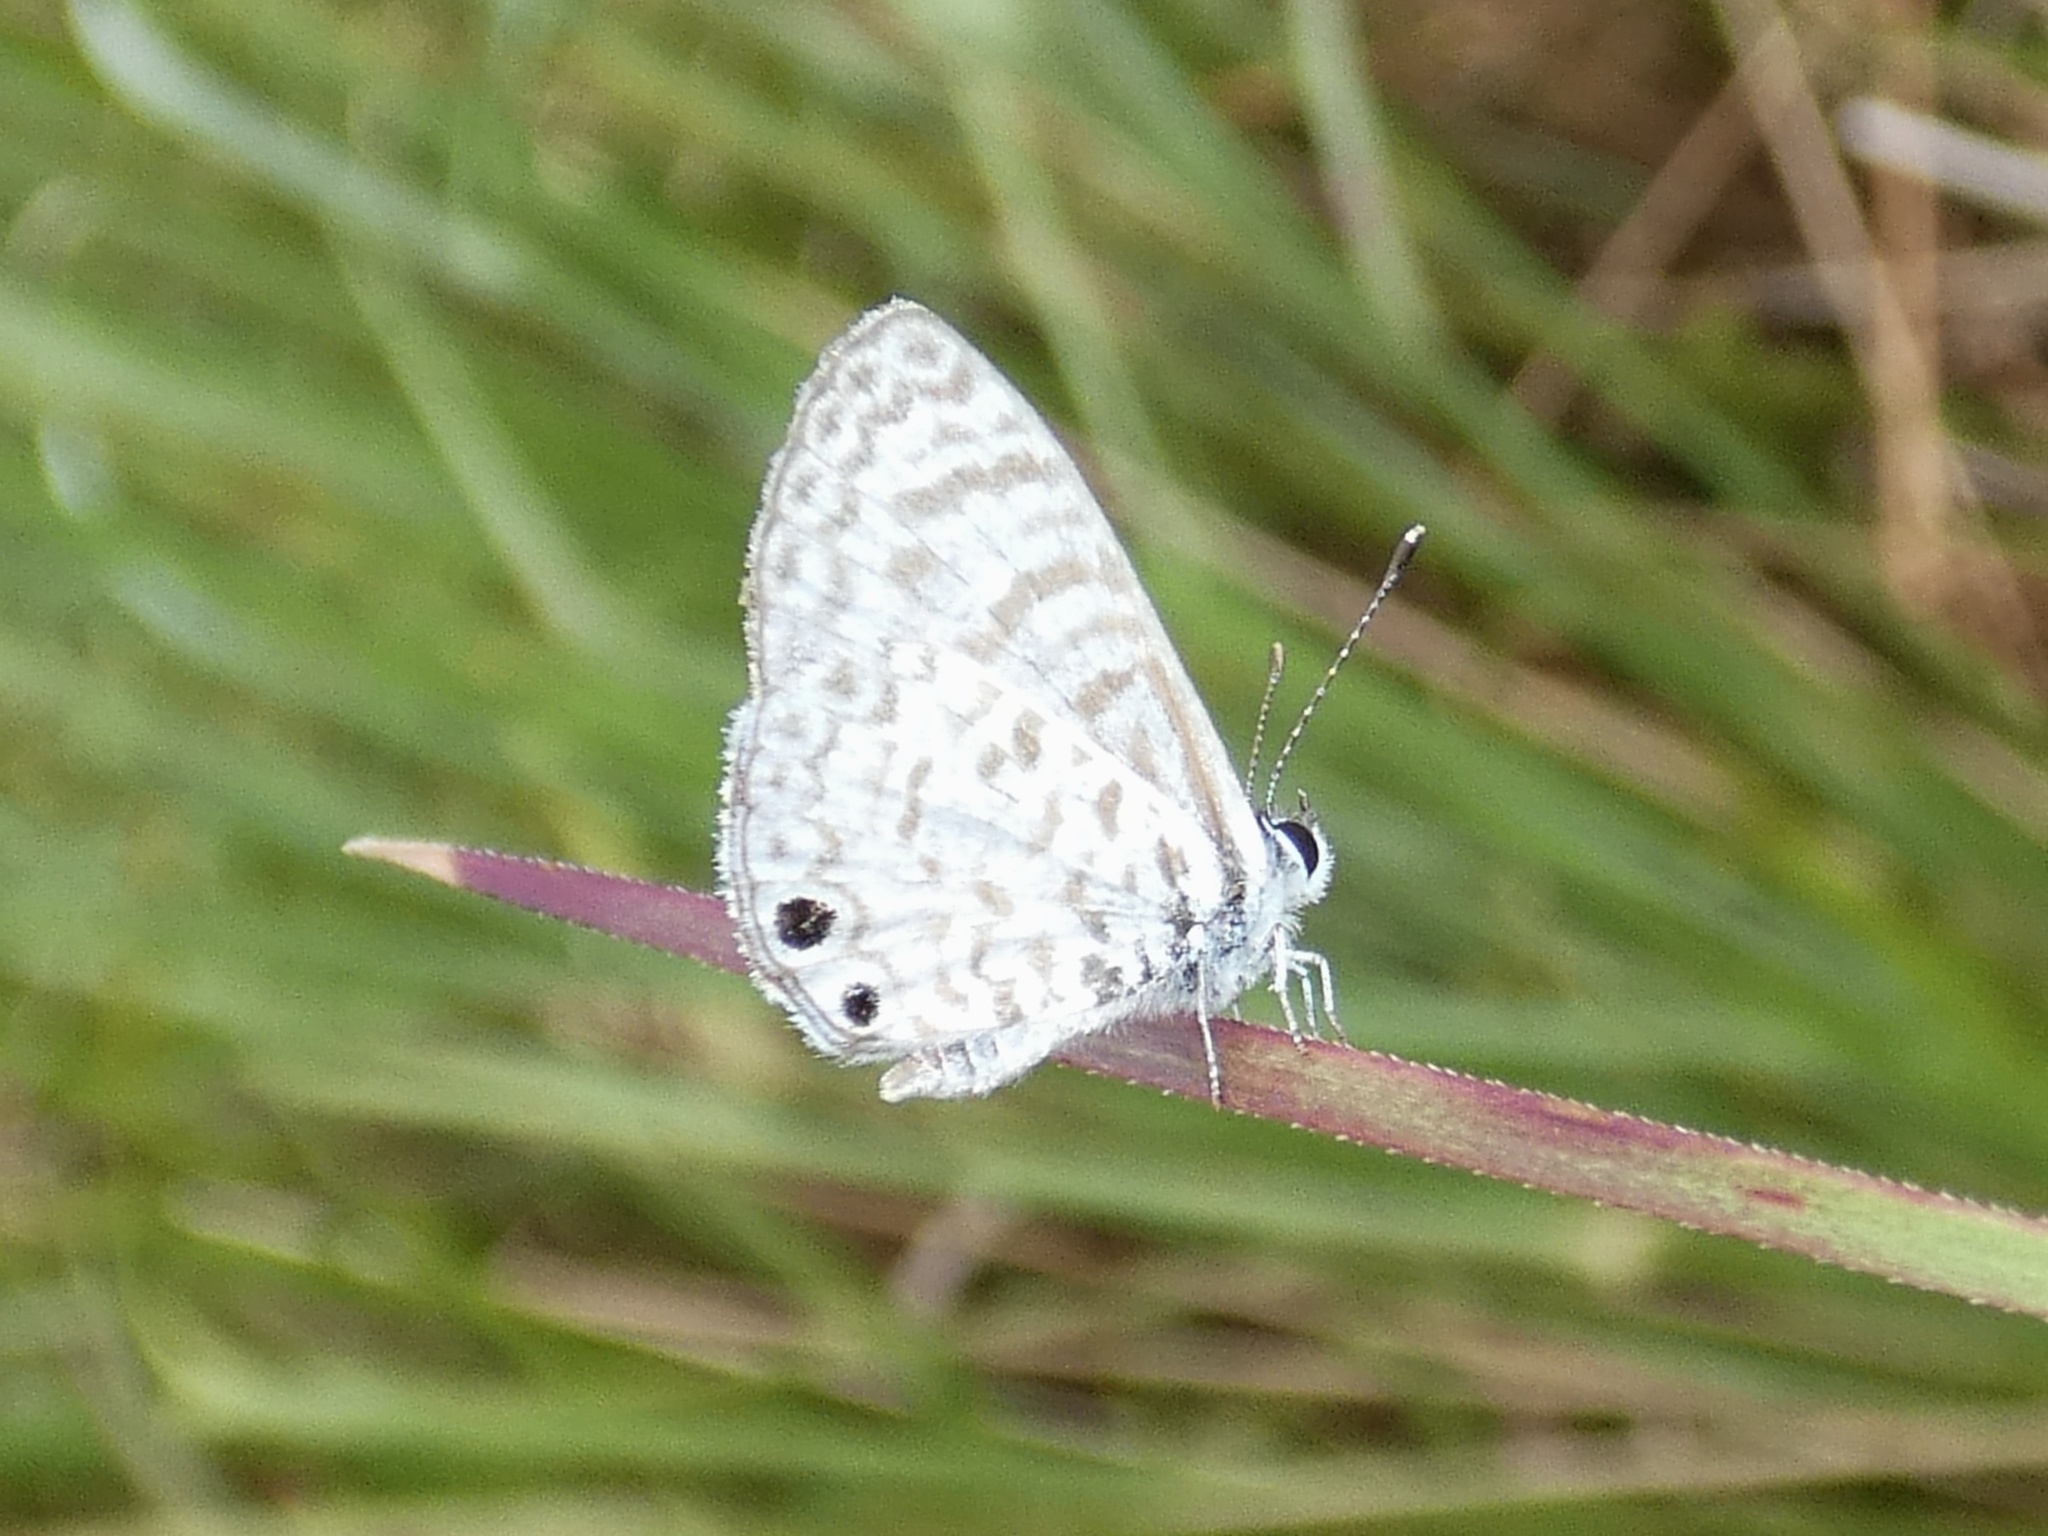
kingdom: Animalia
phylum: Arthropoda
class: Insecta
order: Lepidoptera
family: Lycaenidae
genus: Leptotes
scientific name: Leptotes cassius
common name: Cassius blue
